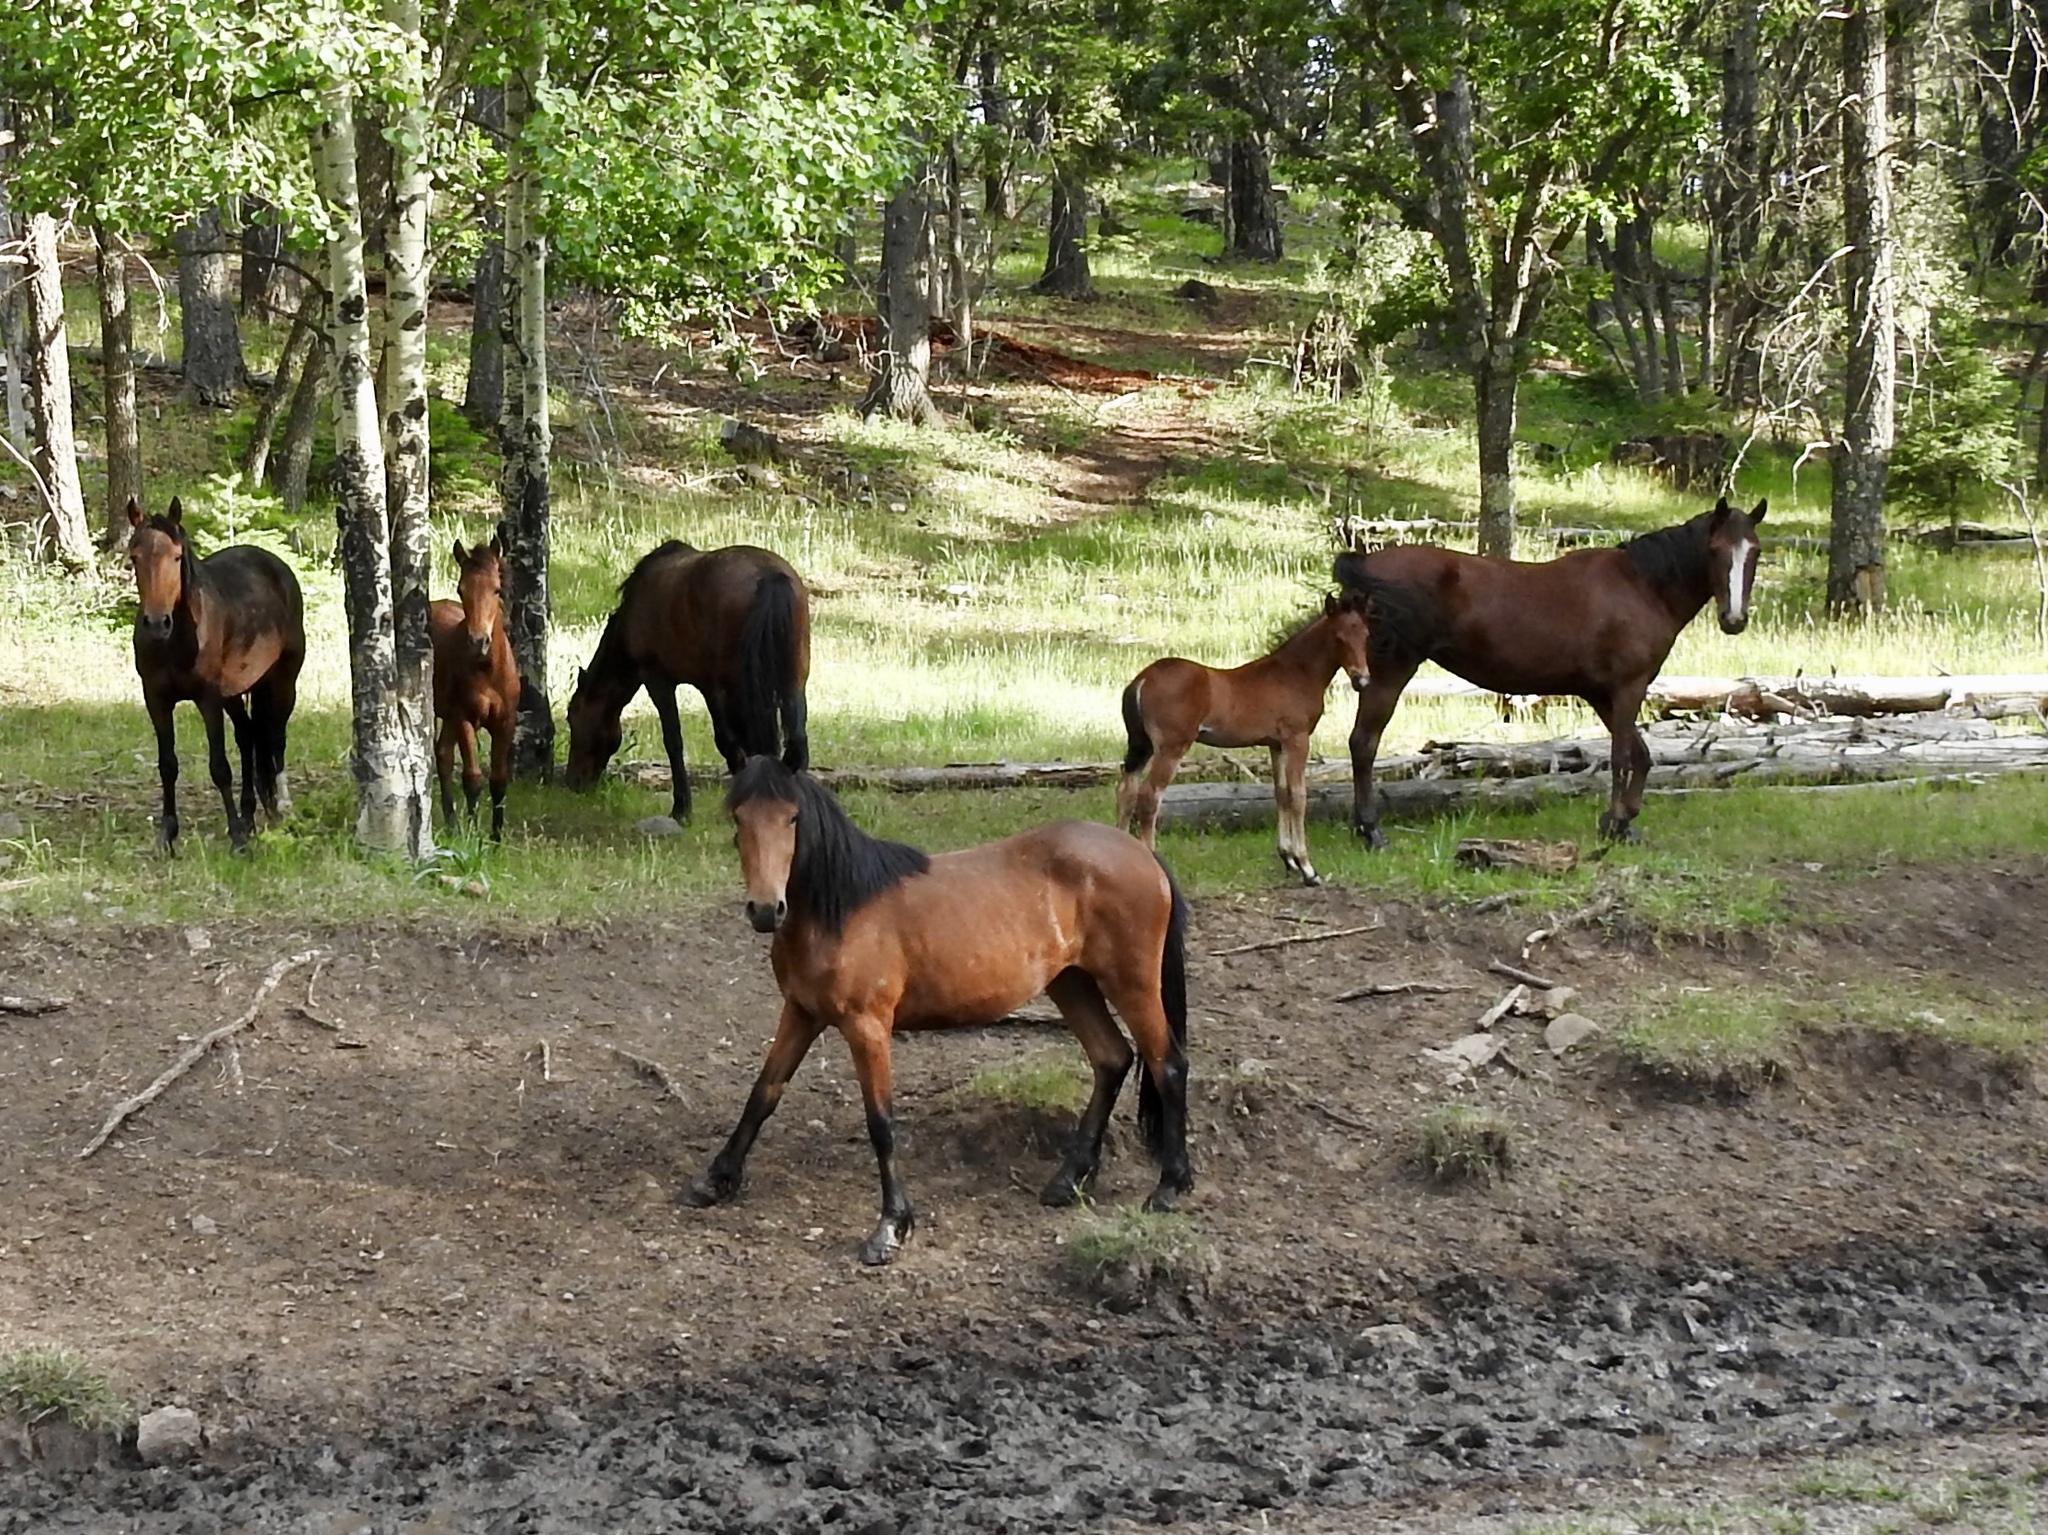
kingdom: Animalia
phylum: Chordata
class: Mammalia
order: Perissodactyla
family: Equidae
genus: Equus
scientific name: Equus caballus
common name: Horse
